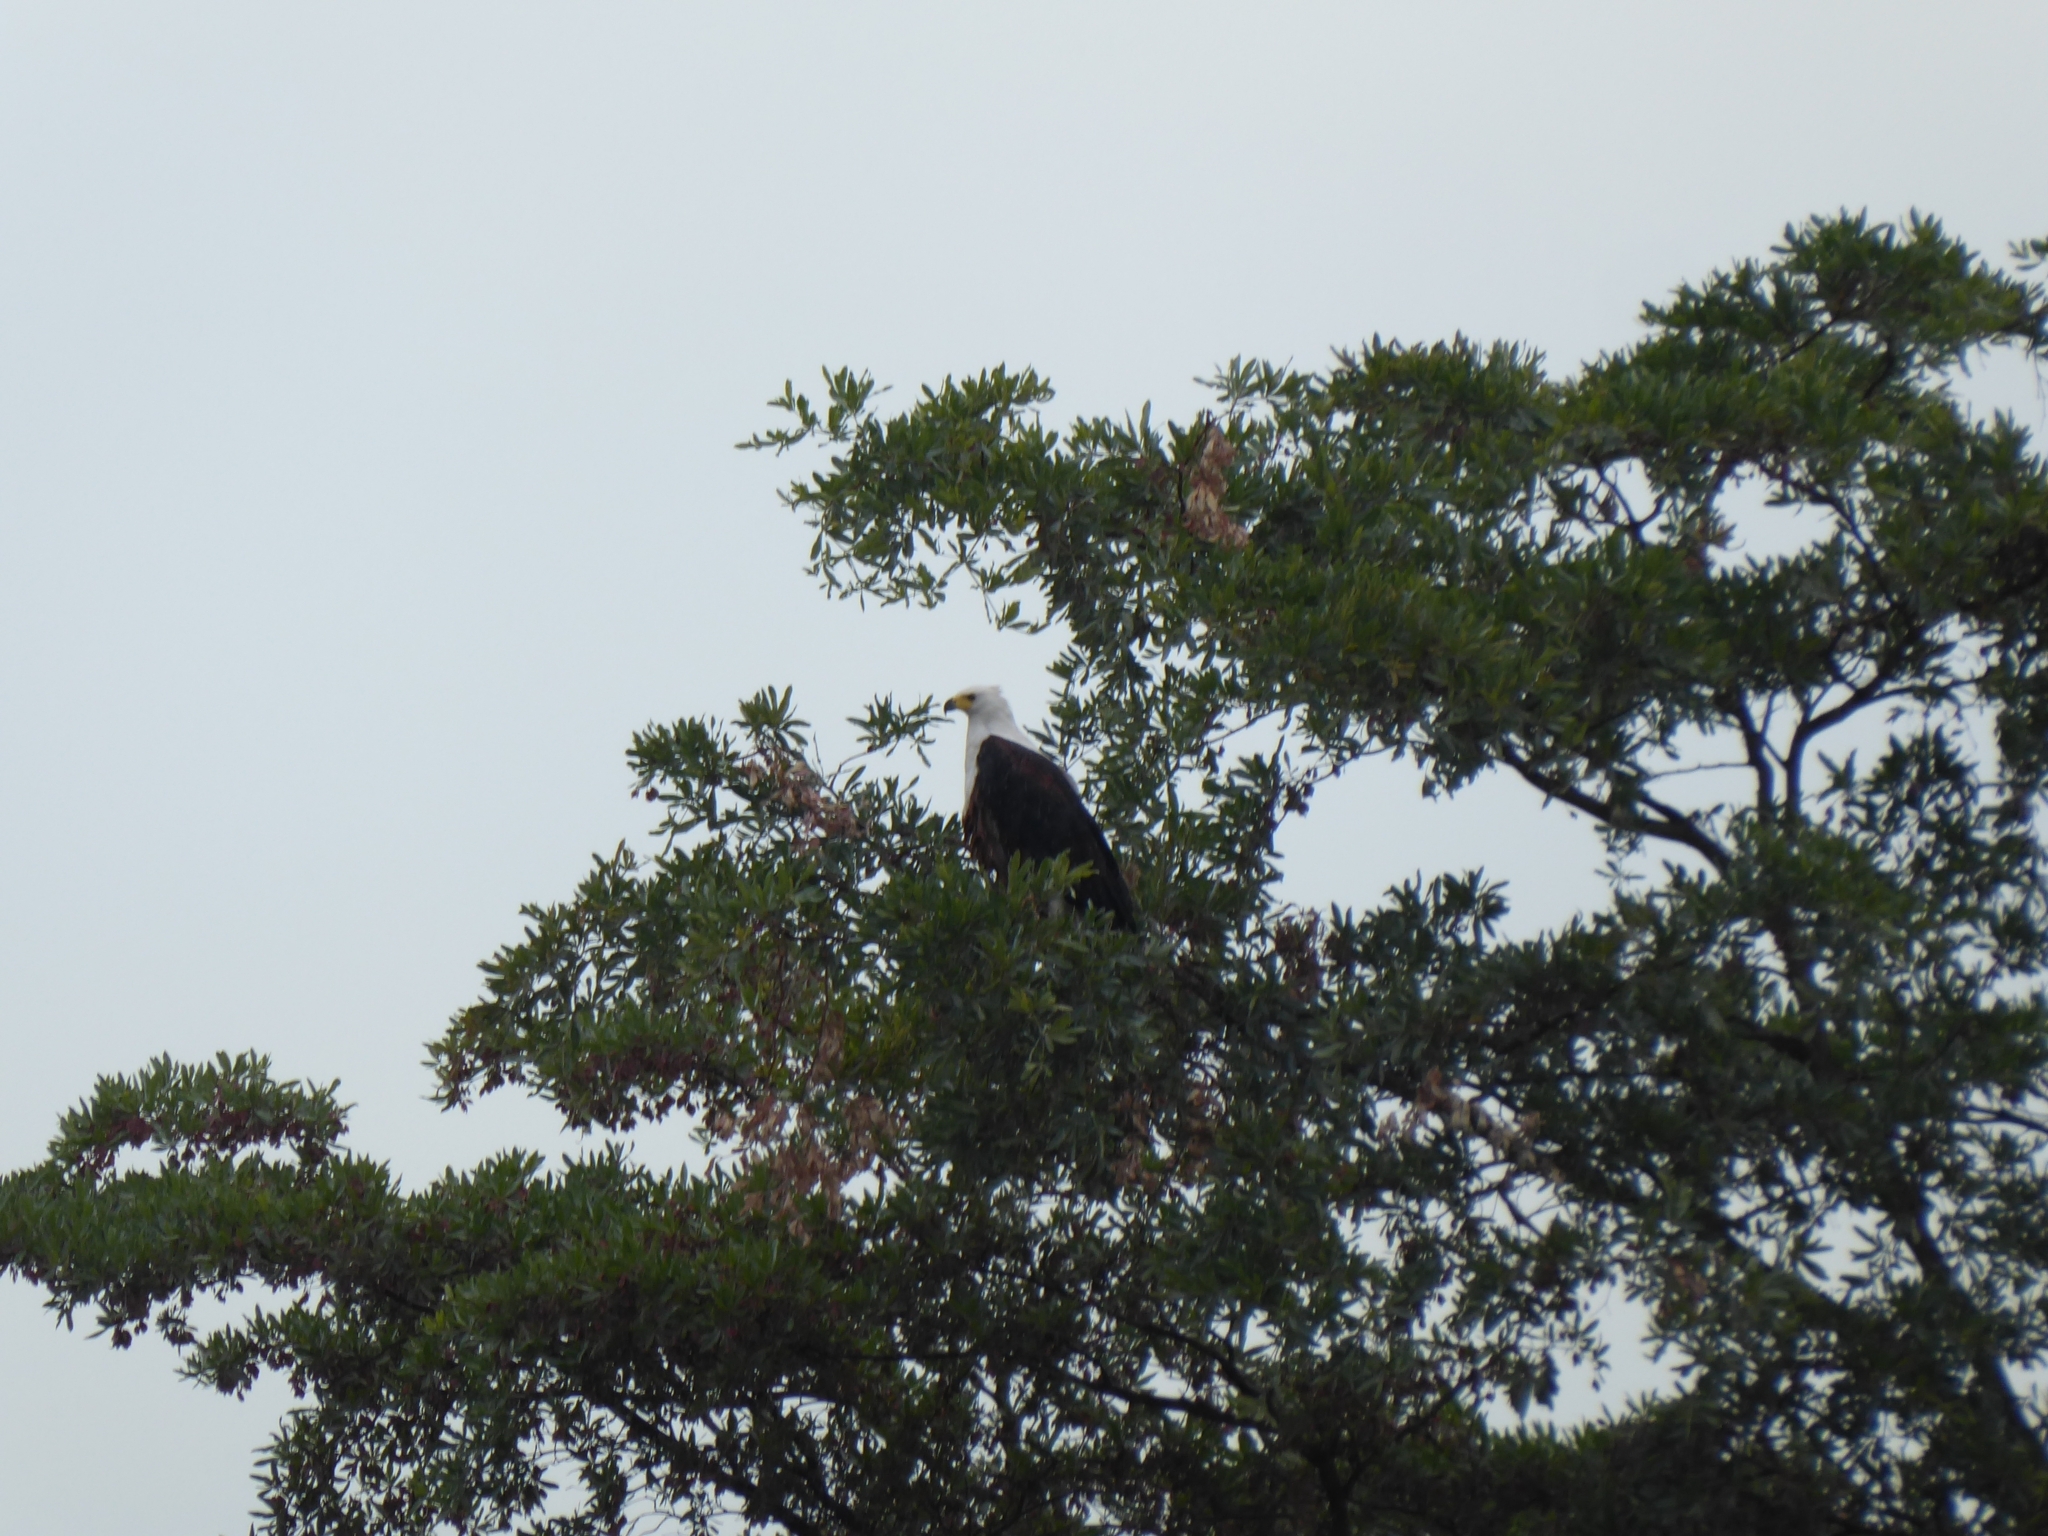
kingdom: Animalia
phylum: Chordata
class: Aves
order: Accipitriformes
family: Accipitridae
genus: Haliaeetus
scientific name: Haliaeetus vocifer
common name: African fish eagle
